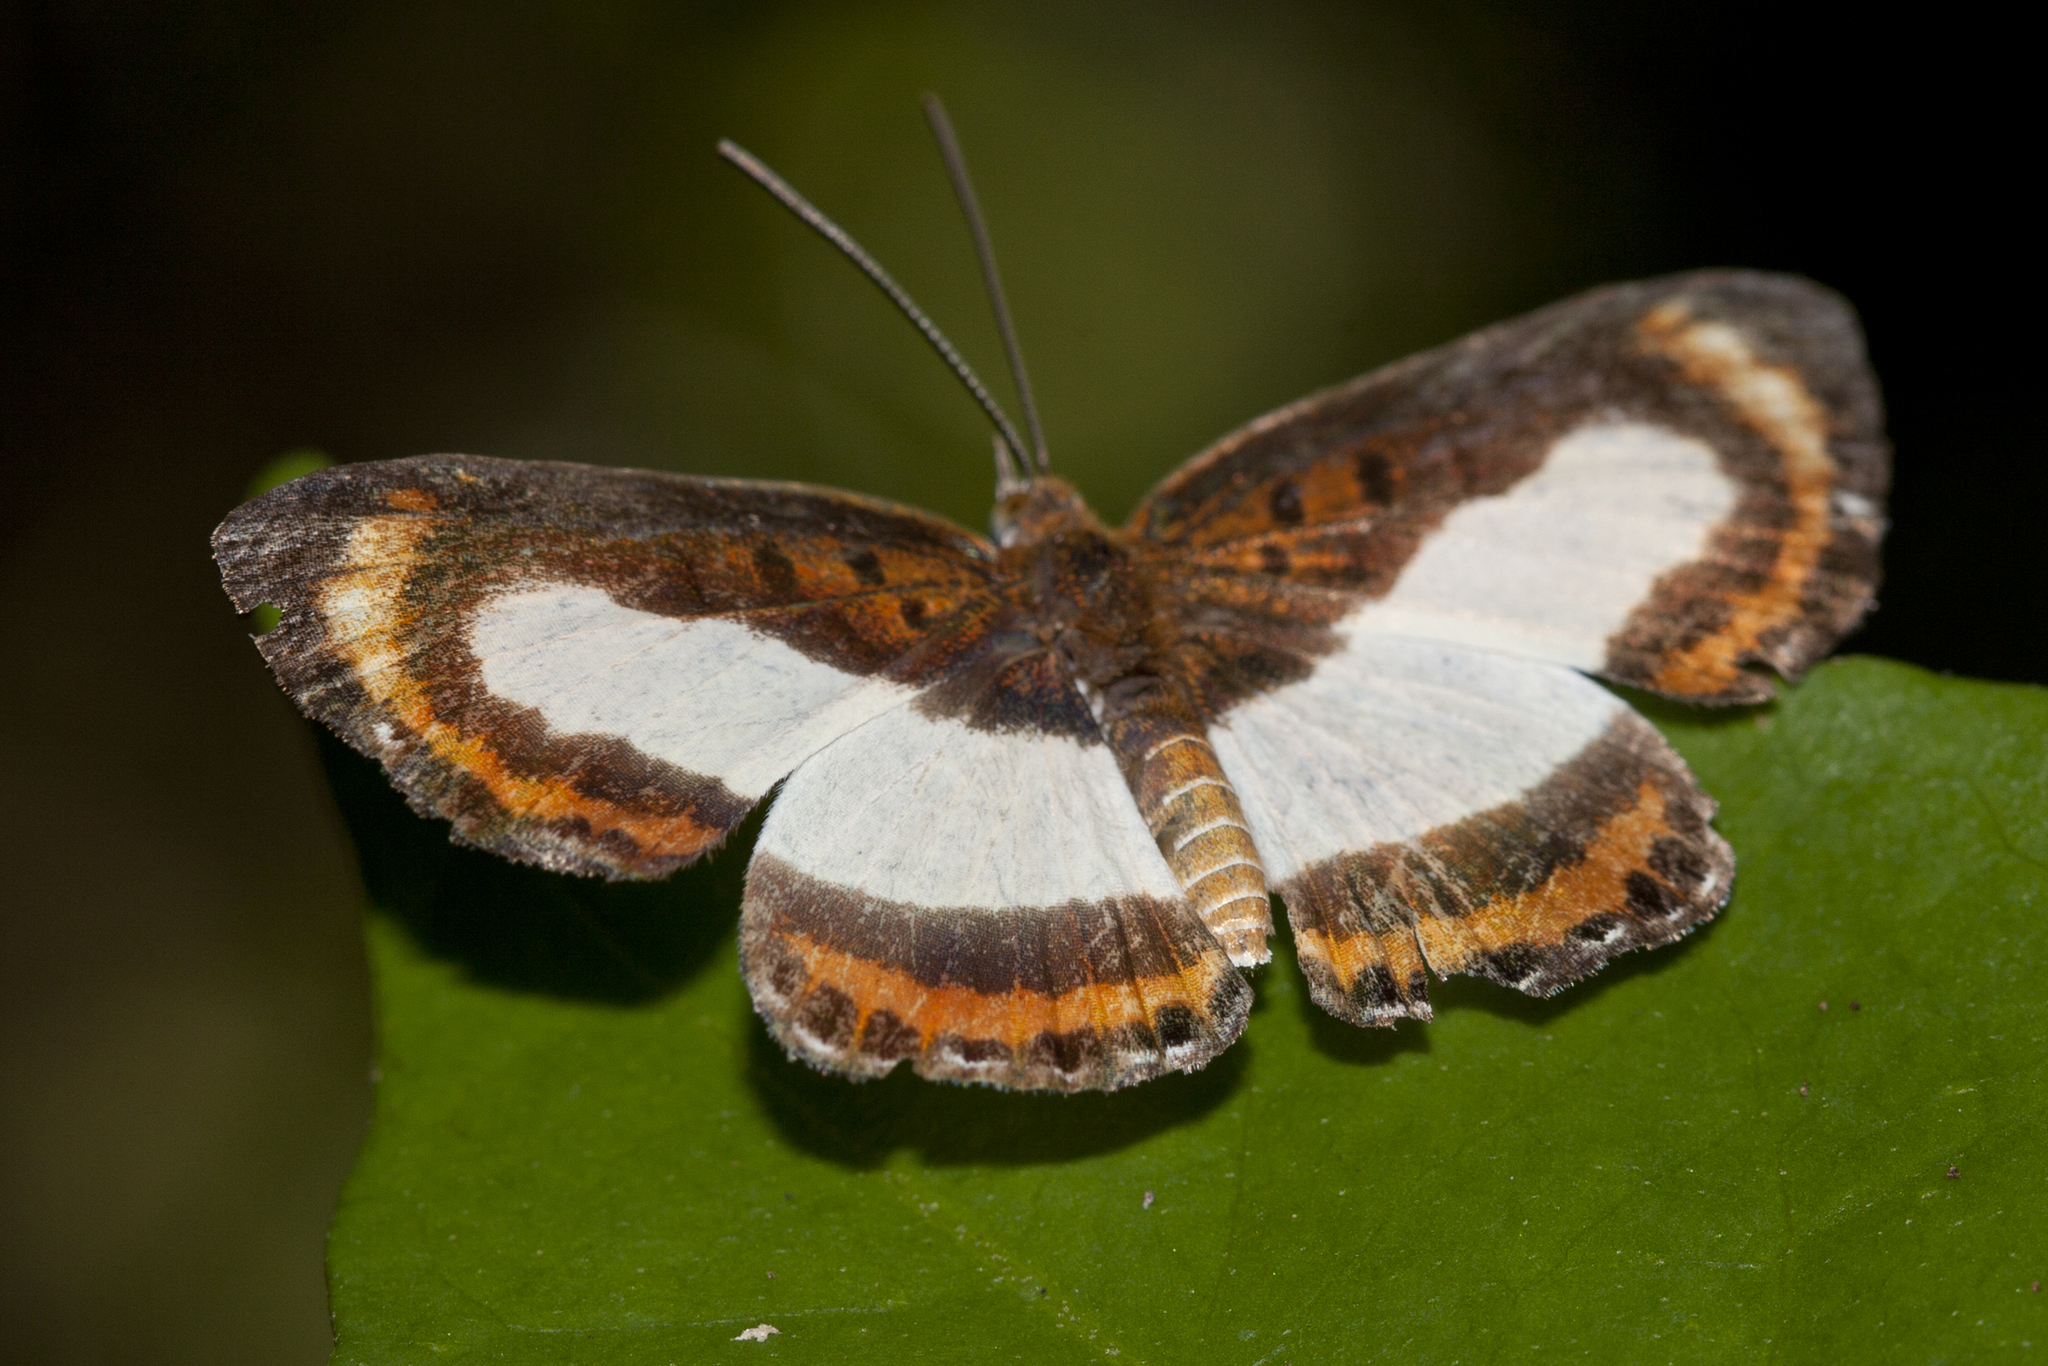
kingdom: Animalia
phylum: Arthropoda
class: Insecta
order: Lepidoptera
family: Riodinidae
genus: Nymula
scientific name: Nymula gela
